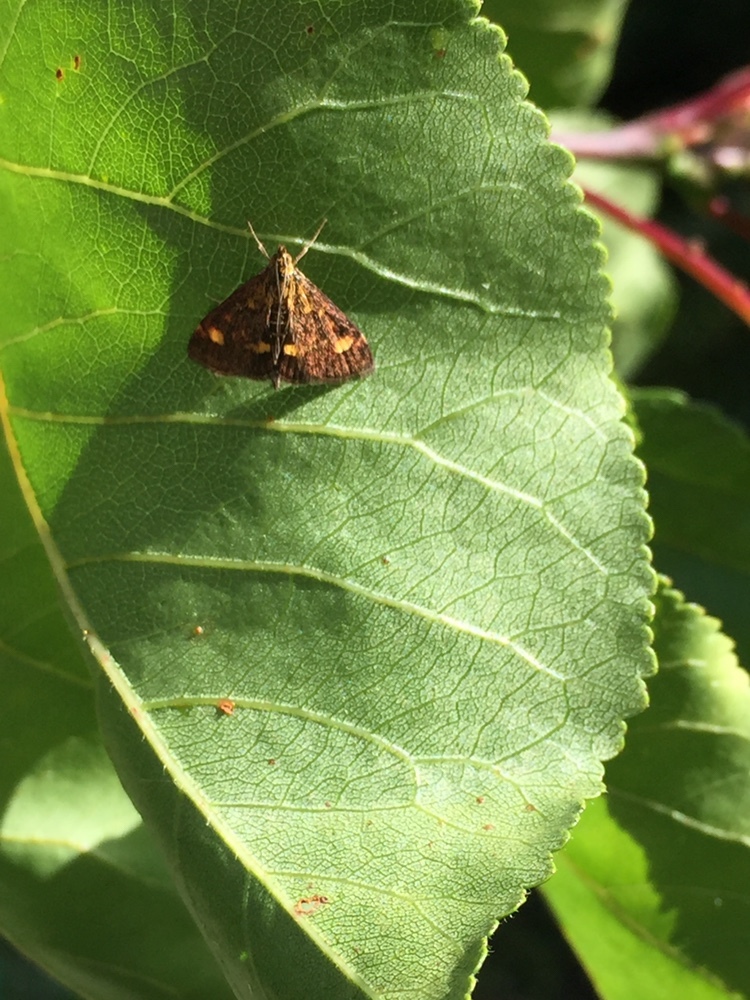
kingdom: Animalia
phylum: Arthropoda
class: Insecta
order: Lepidoptera
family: Crambidae
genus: Pyrausta
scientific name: Pyrausta aurata
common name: Small purple & gold
